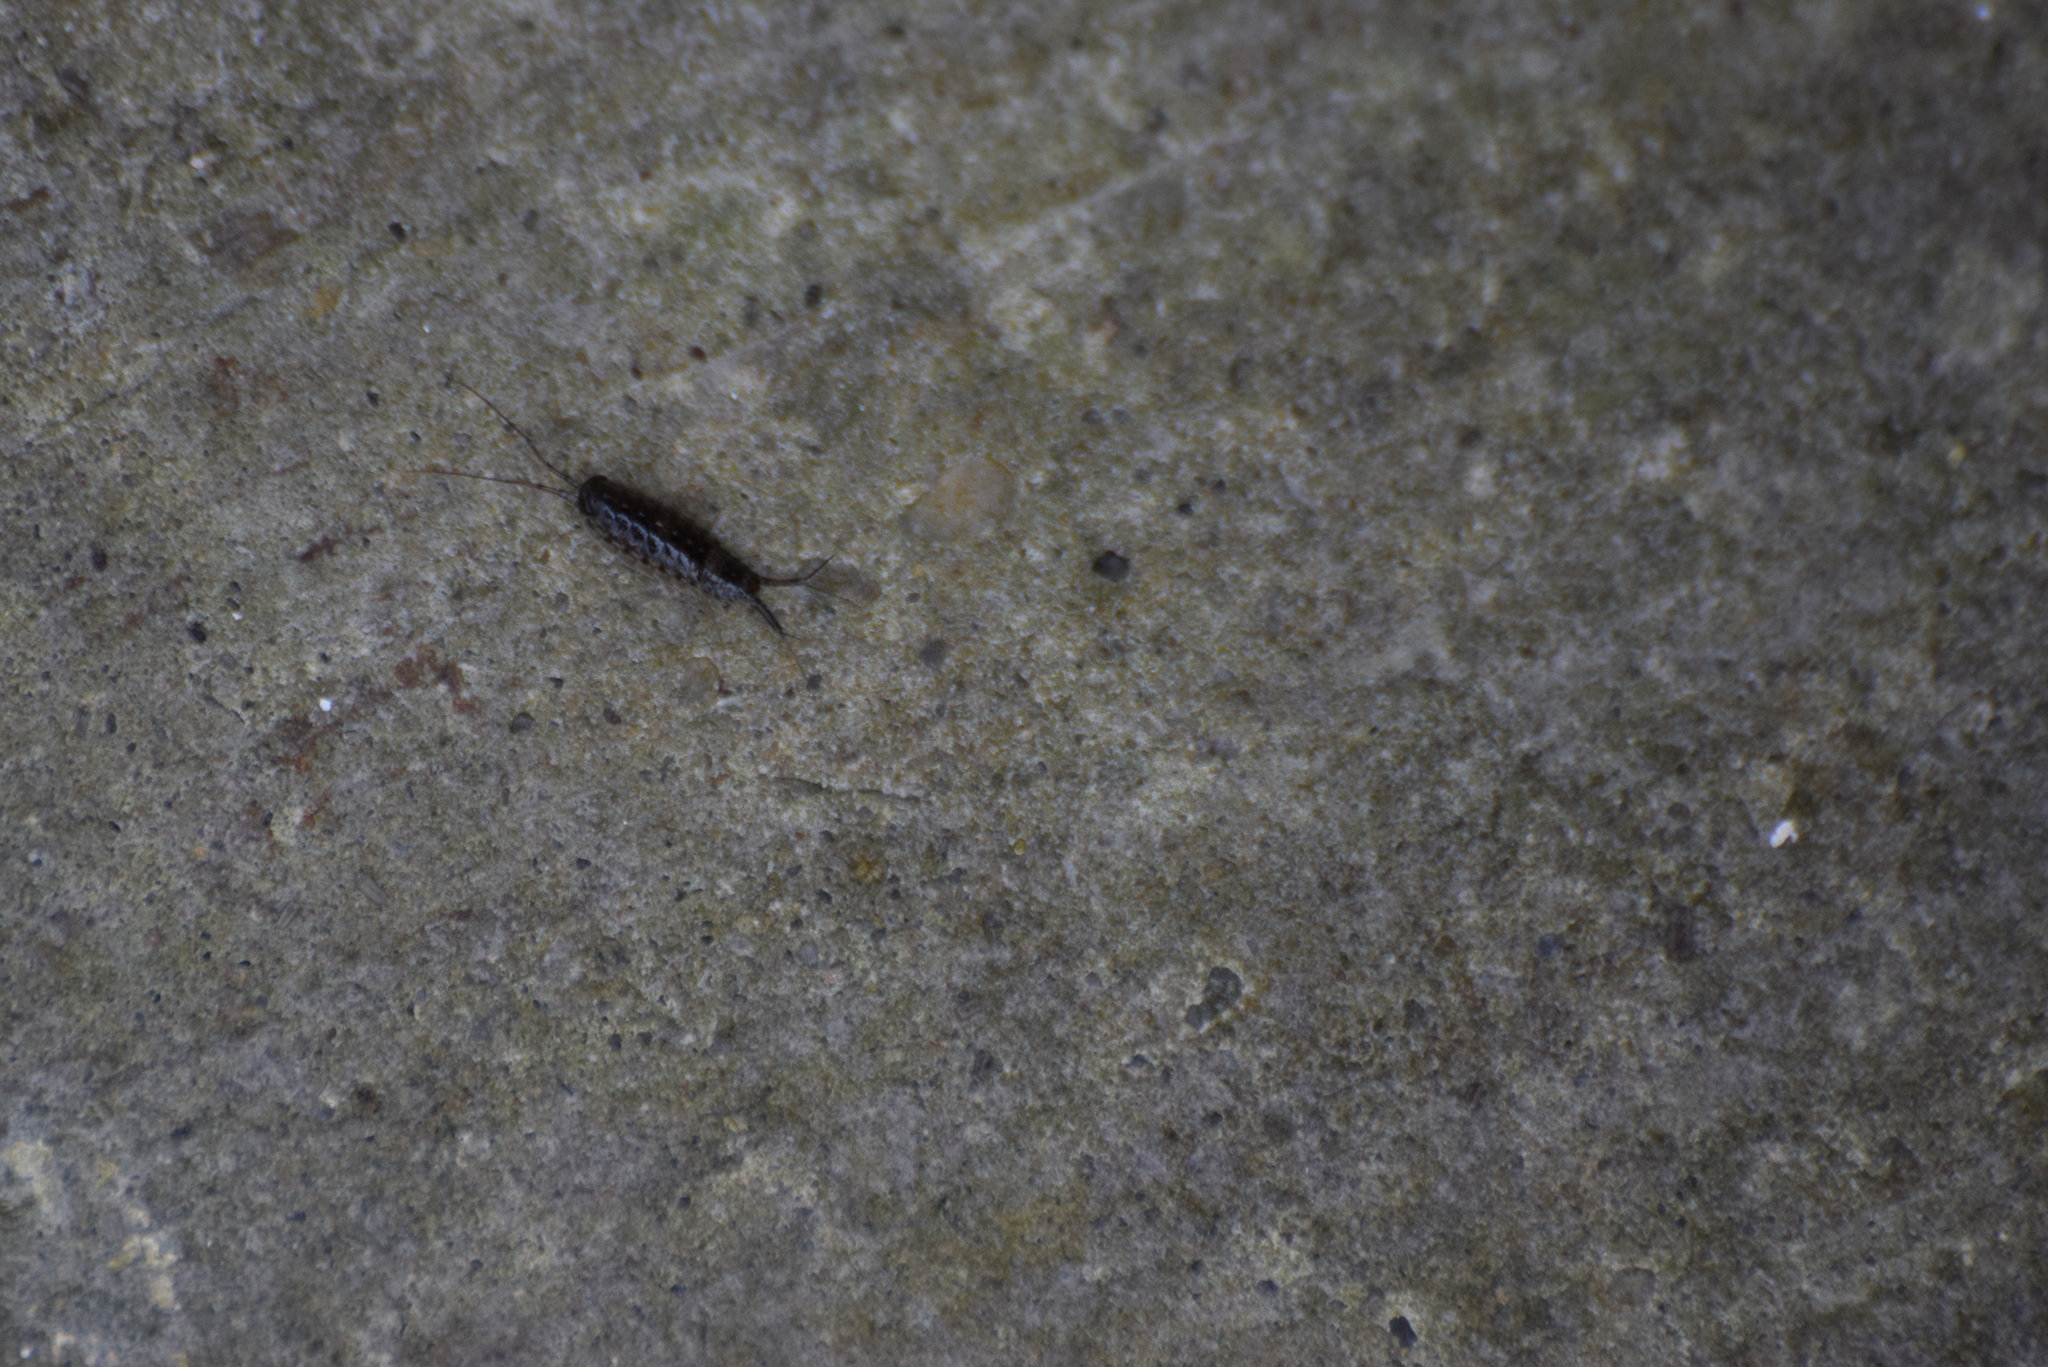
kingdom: Animalia
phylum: Arthropoda
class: Malacostraca
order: Isopoda
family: Ligiidae
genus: Ligia
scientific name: Ligia exotica
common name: Wharf roach
